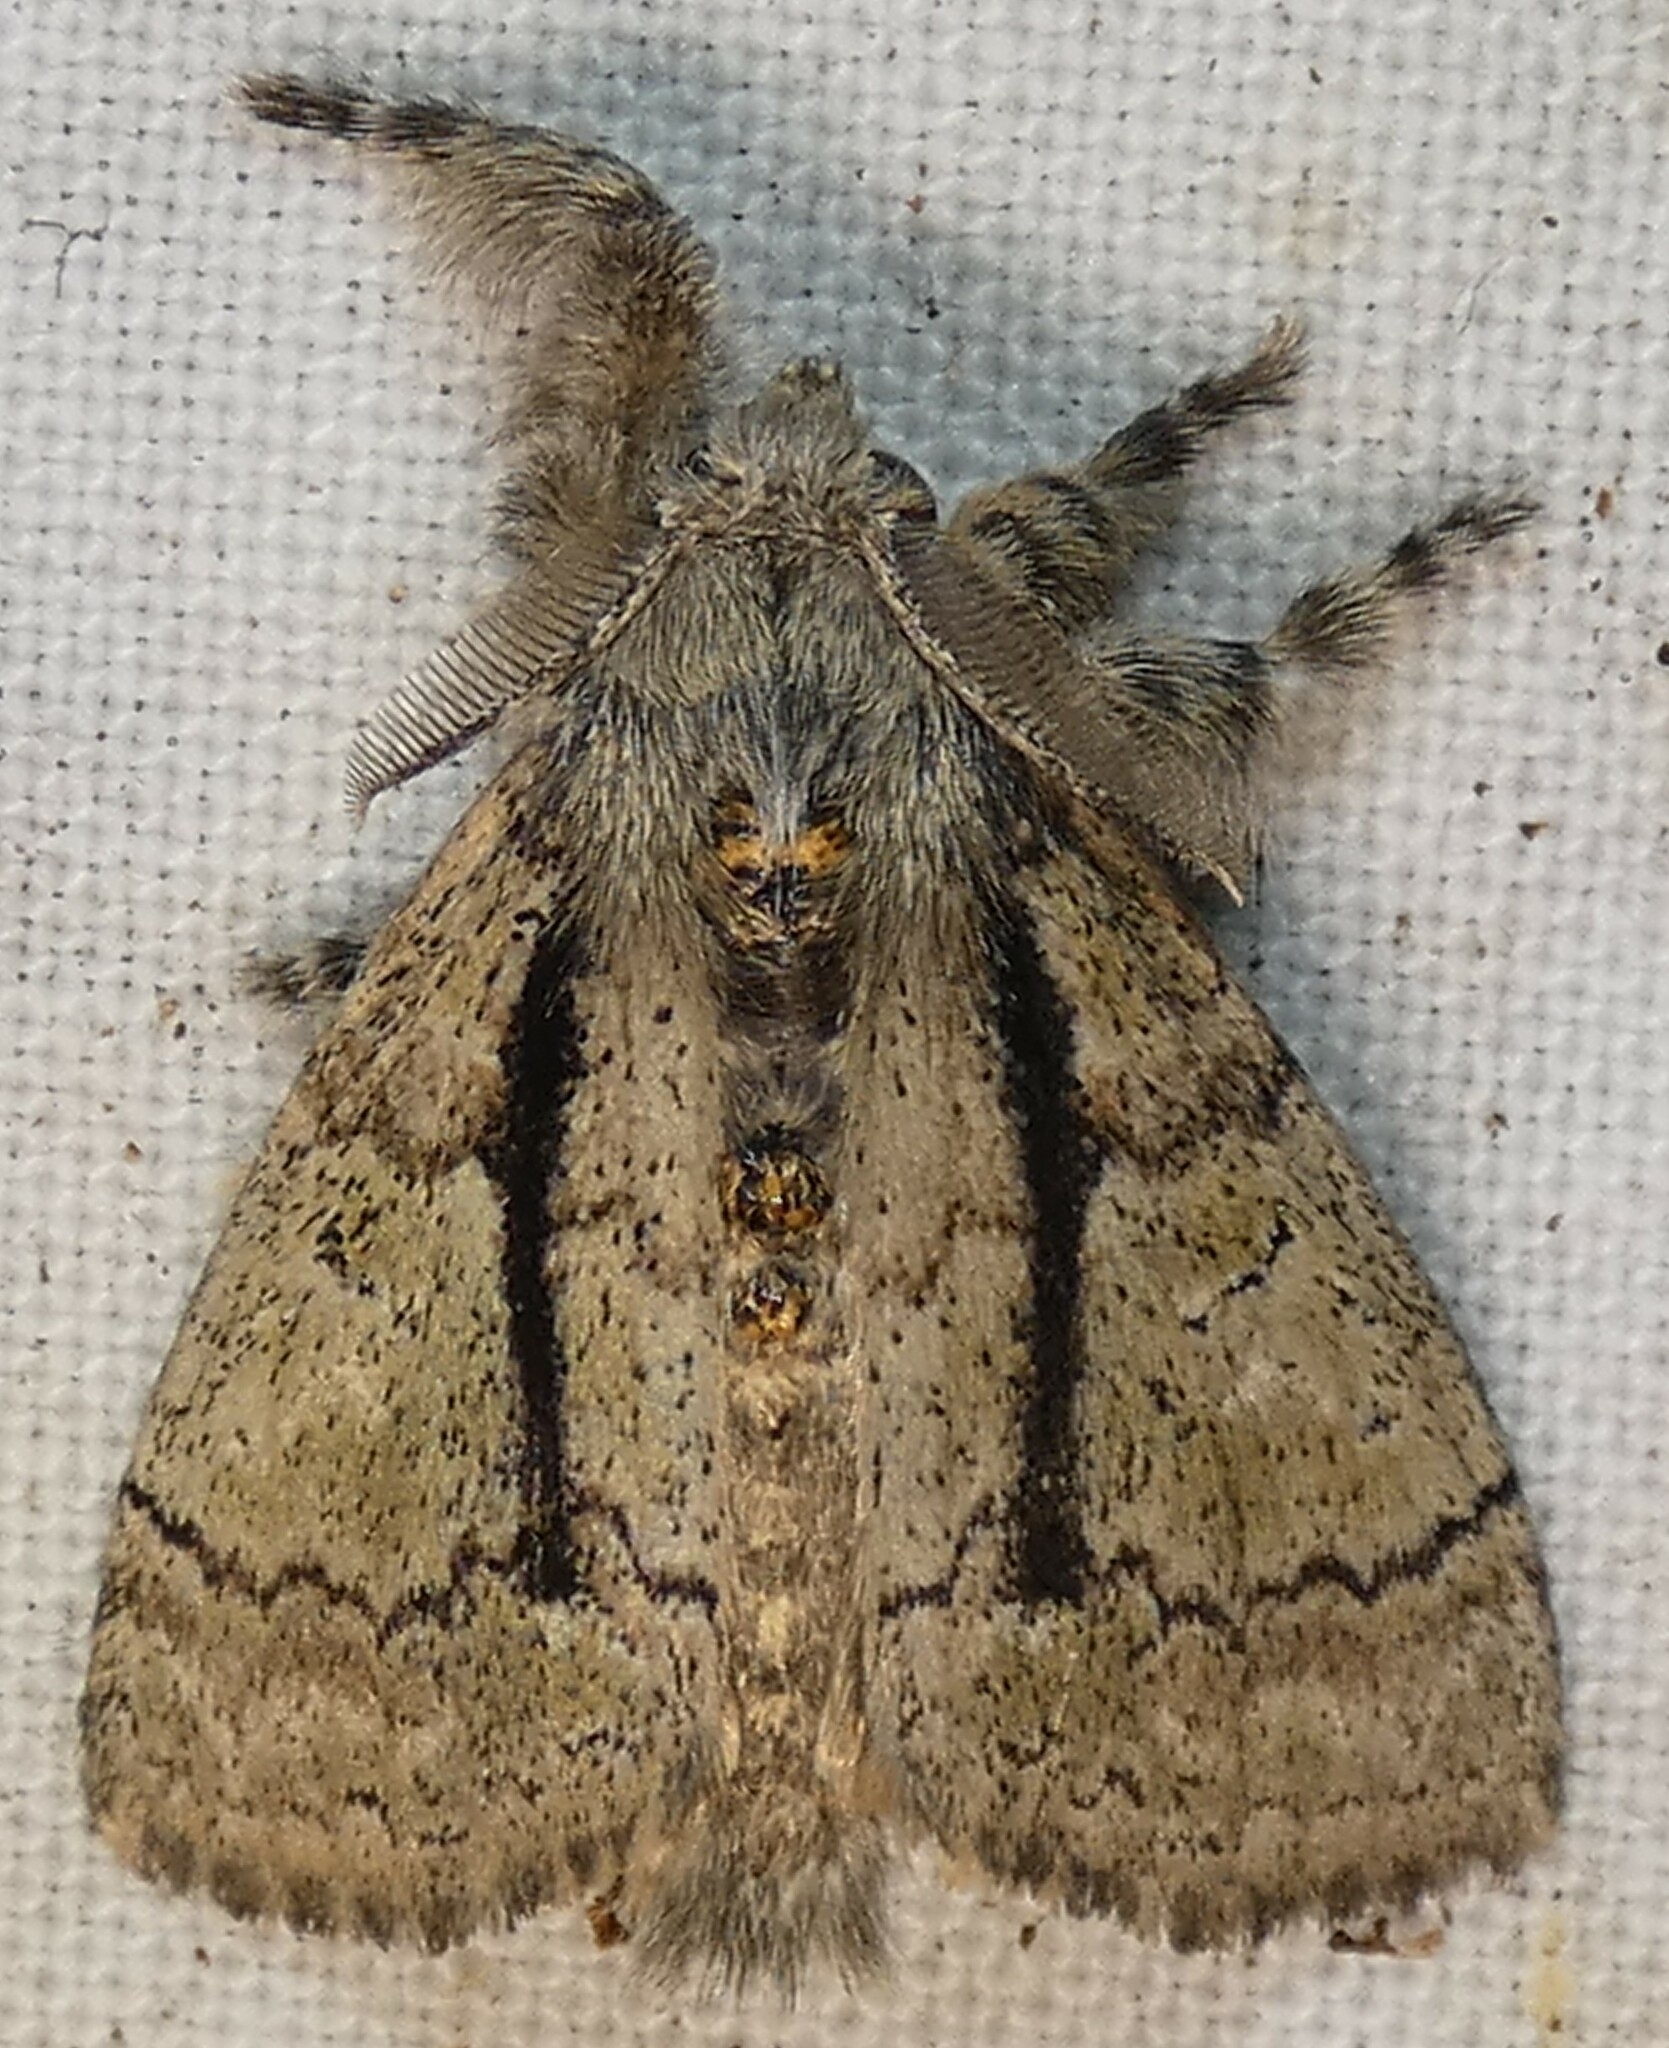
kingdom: Animalia
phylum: Arthropoda
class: Insecta
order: Lepidoptera
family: Erebidae
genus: Dasychira
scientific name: Dasychira tephra
